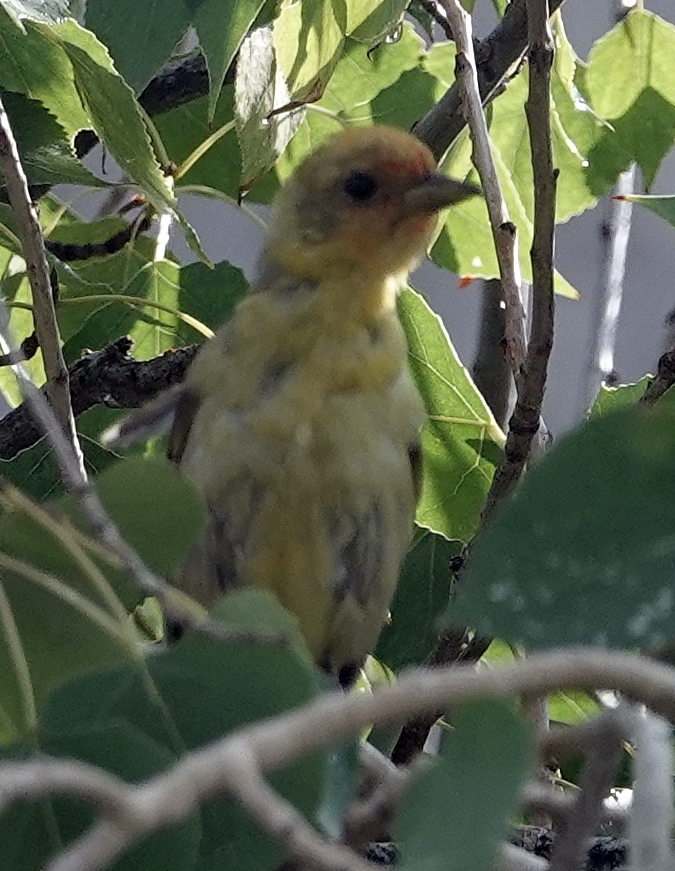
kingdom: Animalia
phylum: Chordata
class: Aves
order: Passeriformes
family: Cardinalidae
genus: Piranga
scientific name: Piranga ludoviciana
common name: Western tanager
